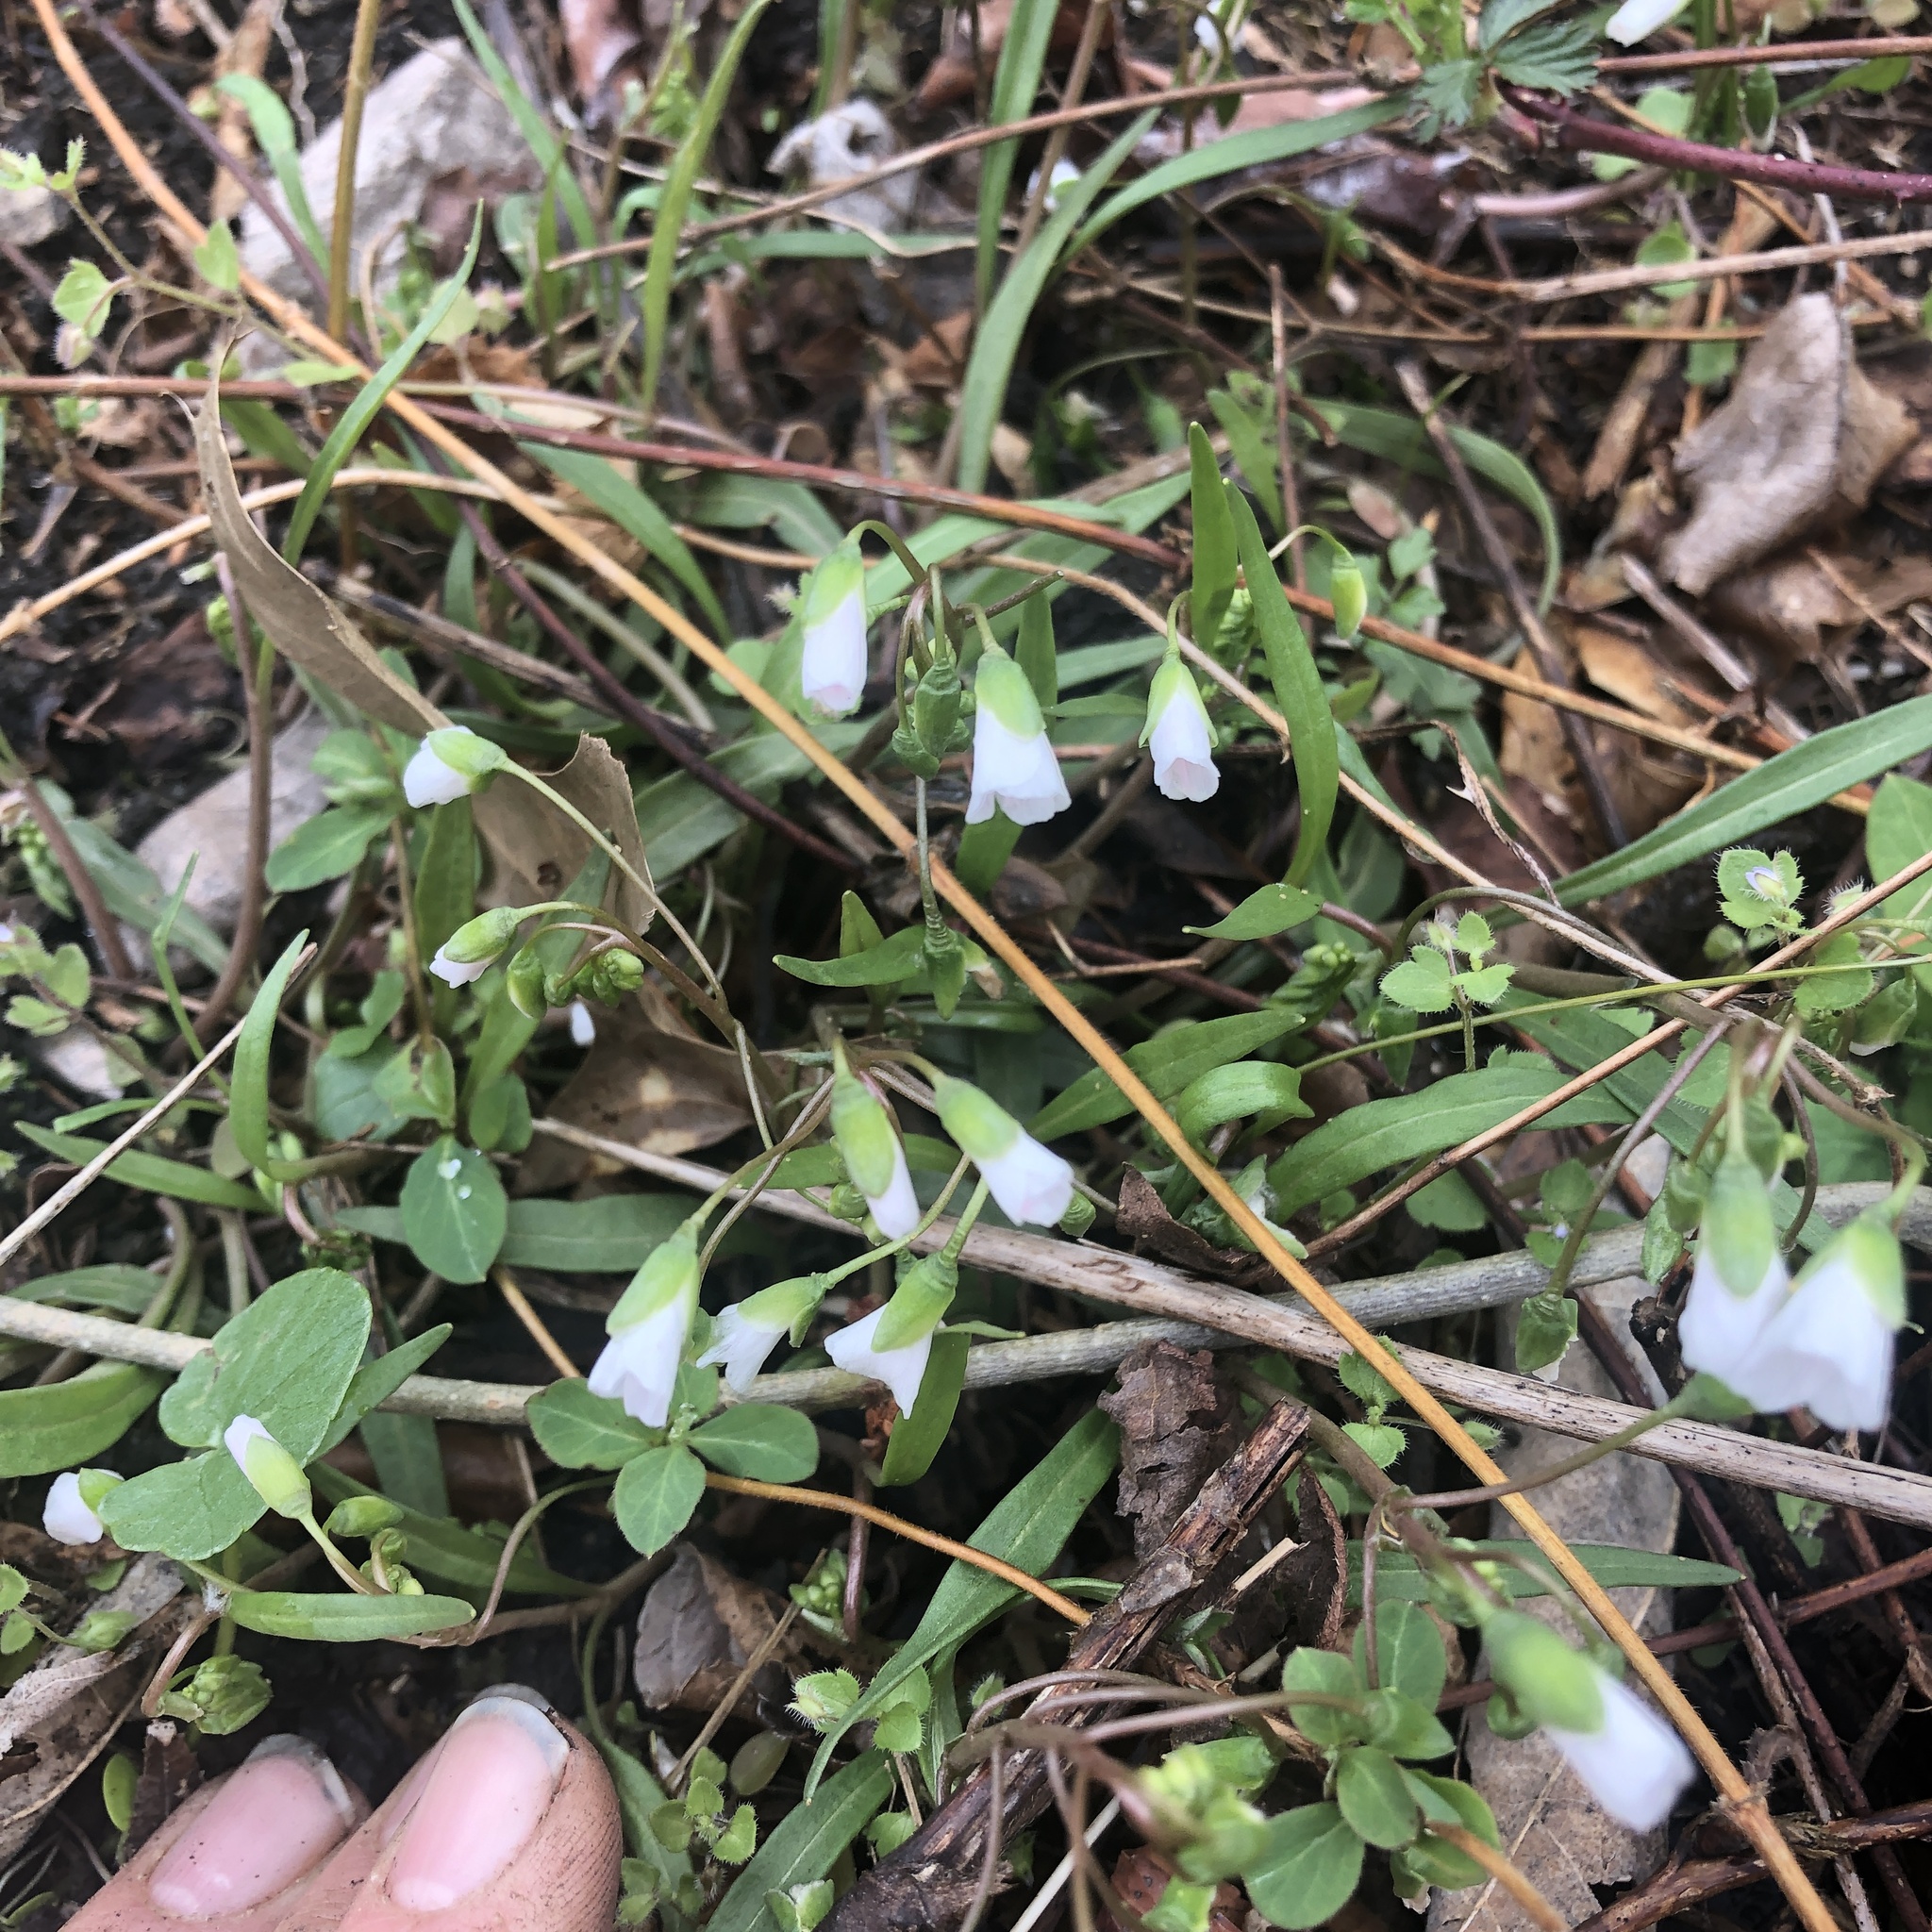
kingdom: Plantae
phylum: Tracheophyta
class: Magnoliopsida
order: Caryophyllales
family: Montiaceae
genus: Claytonia
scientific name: Claytonia virginica
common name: Virginia springbeauty
